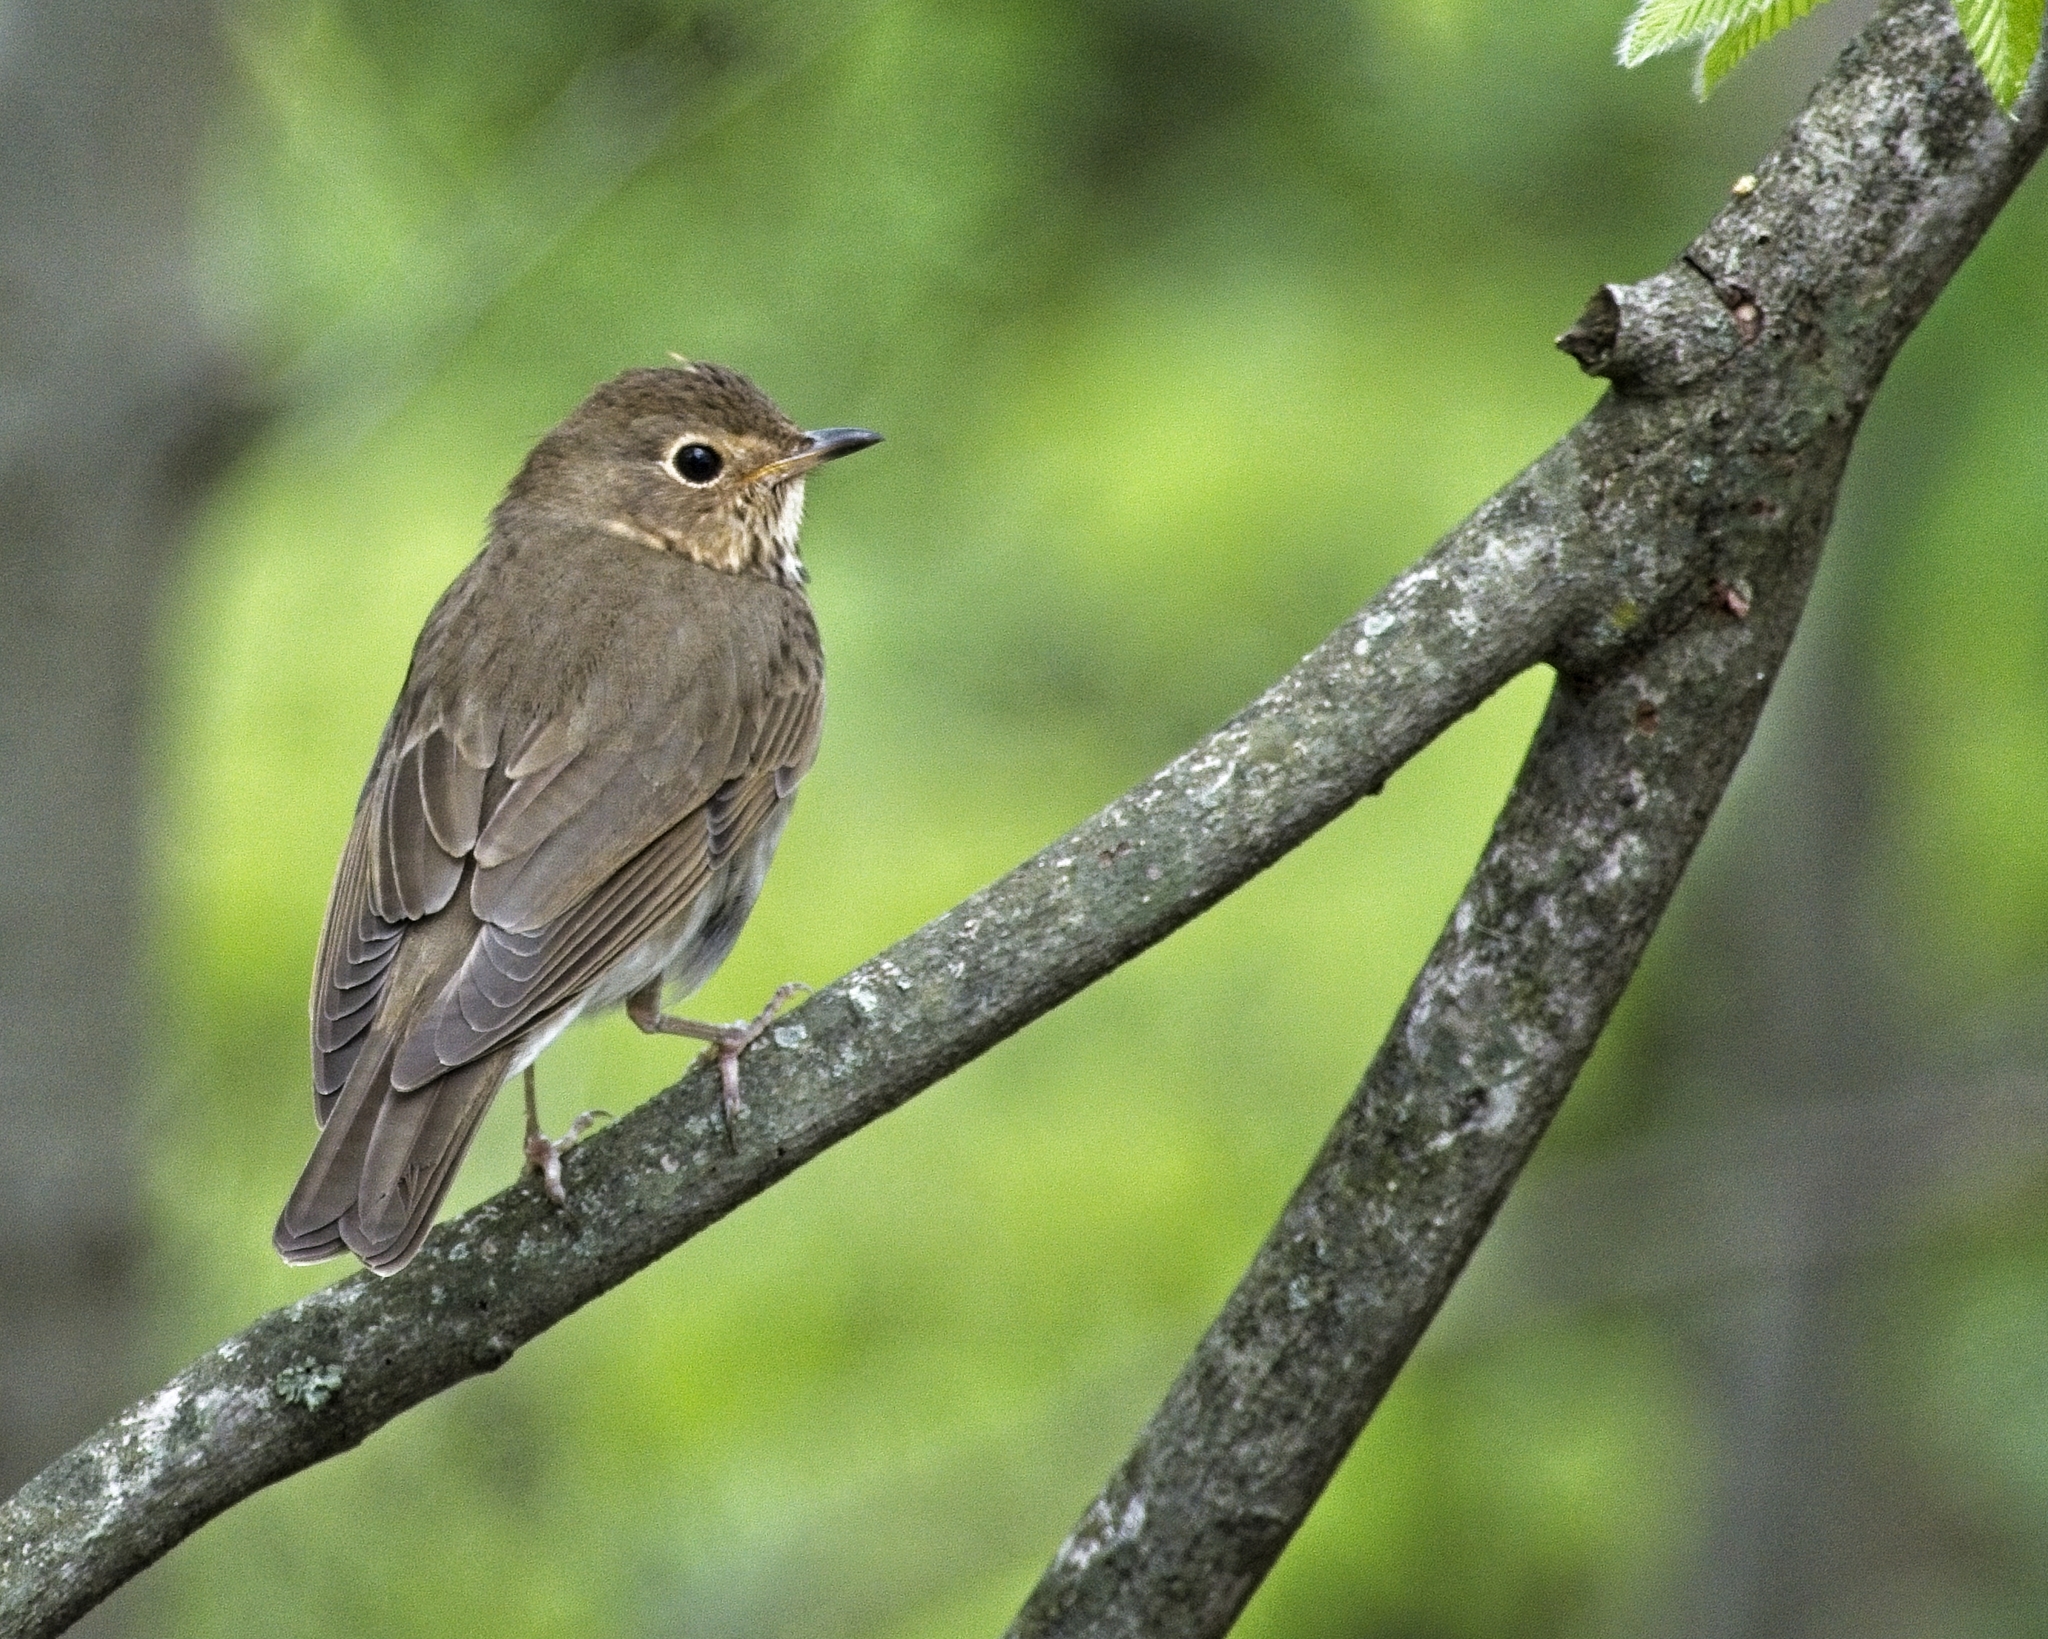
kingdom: Animalia
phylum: Chordata
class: Aves
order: Passeriformes
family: Turdidae
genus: Catharus
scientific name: Catharus ustulatus
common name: Swainson's thrush
